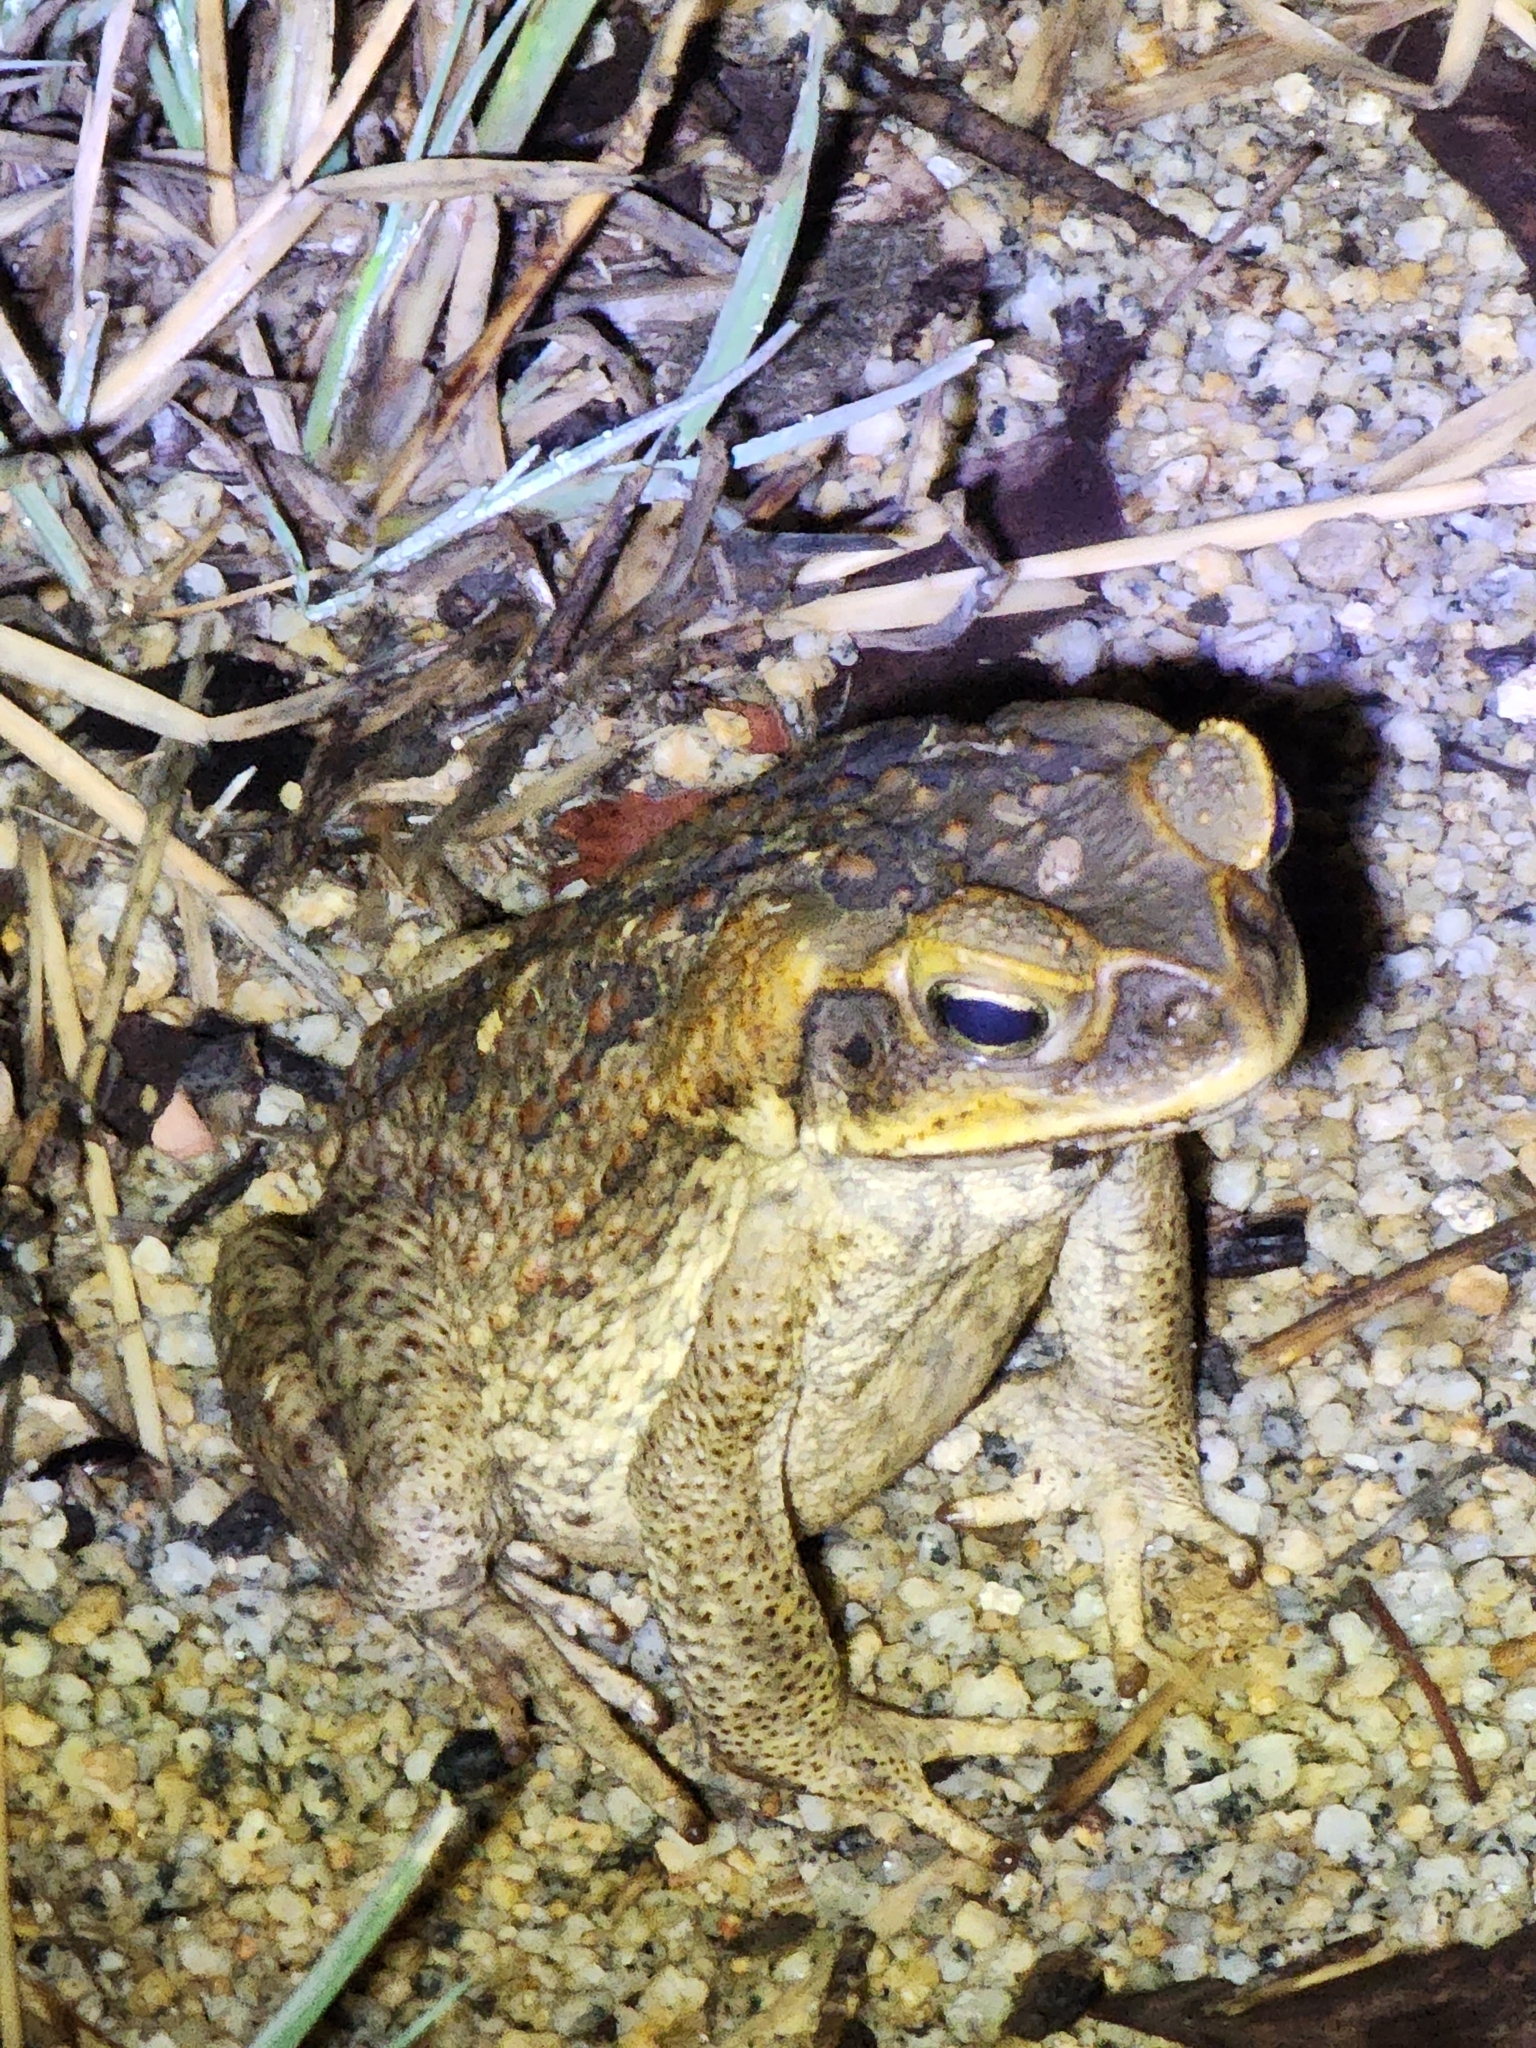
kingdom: Animalia
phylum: Chordata
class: Amphibia
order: Anura
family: Bufonidae
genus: Rhinella
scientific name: Rhinella marina
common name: Cane toad
